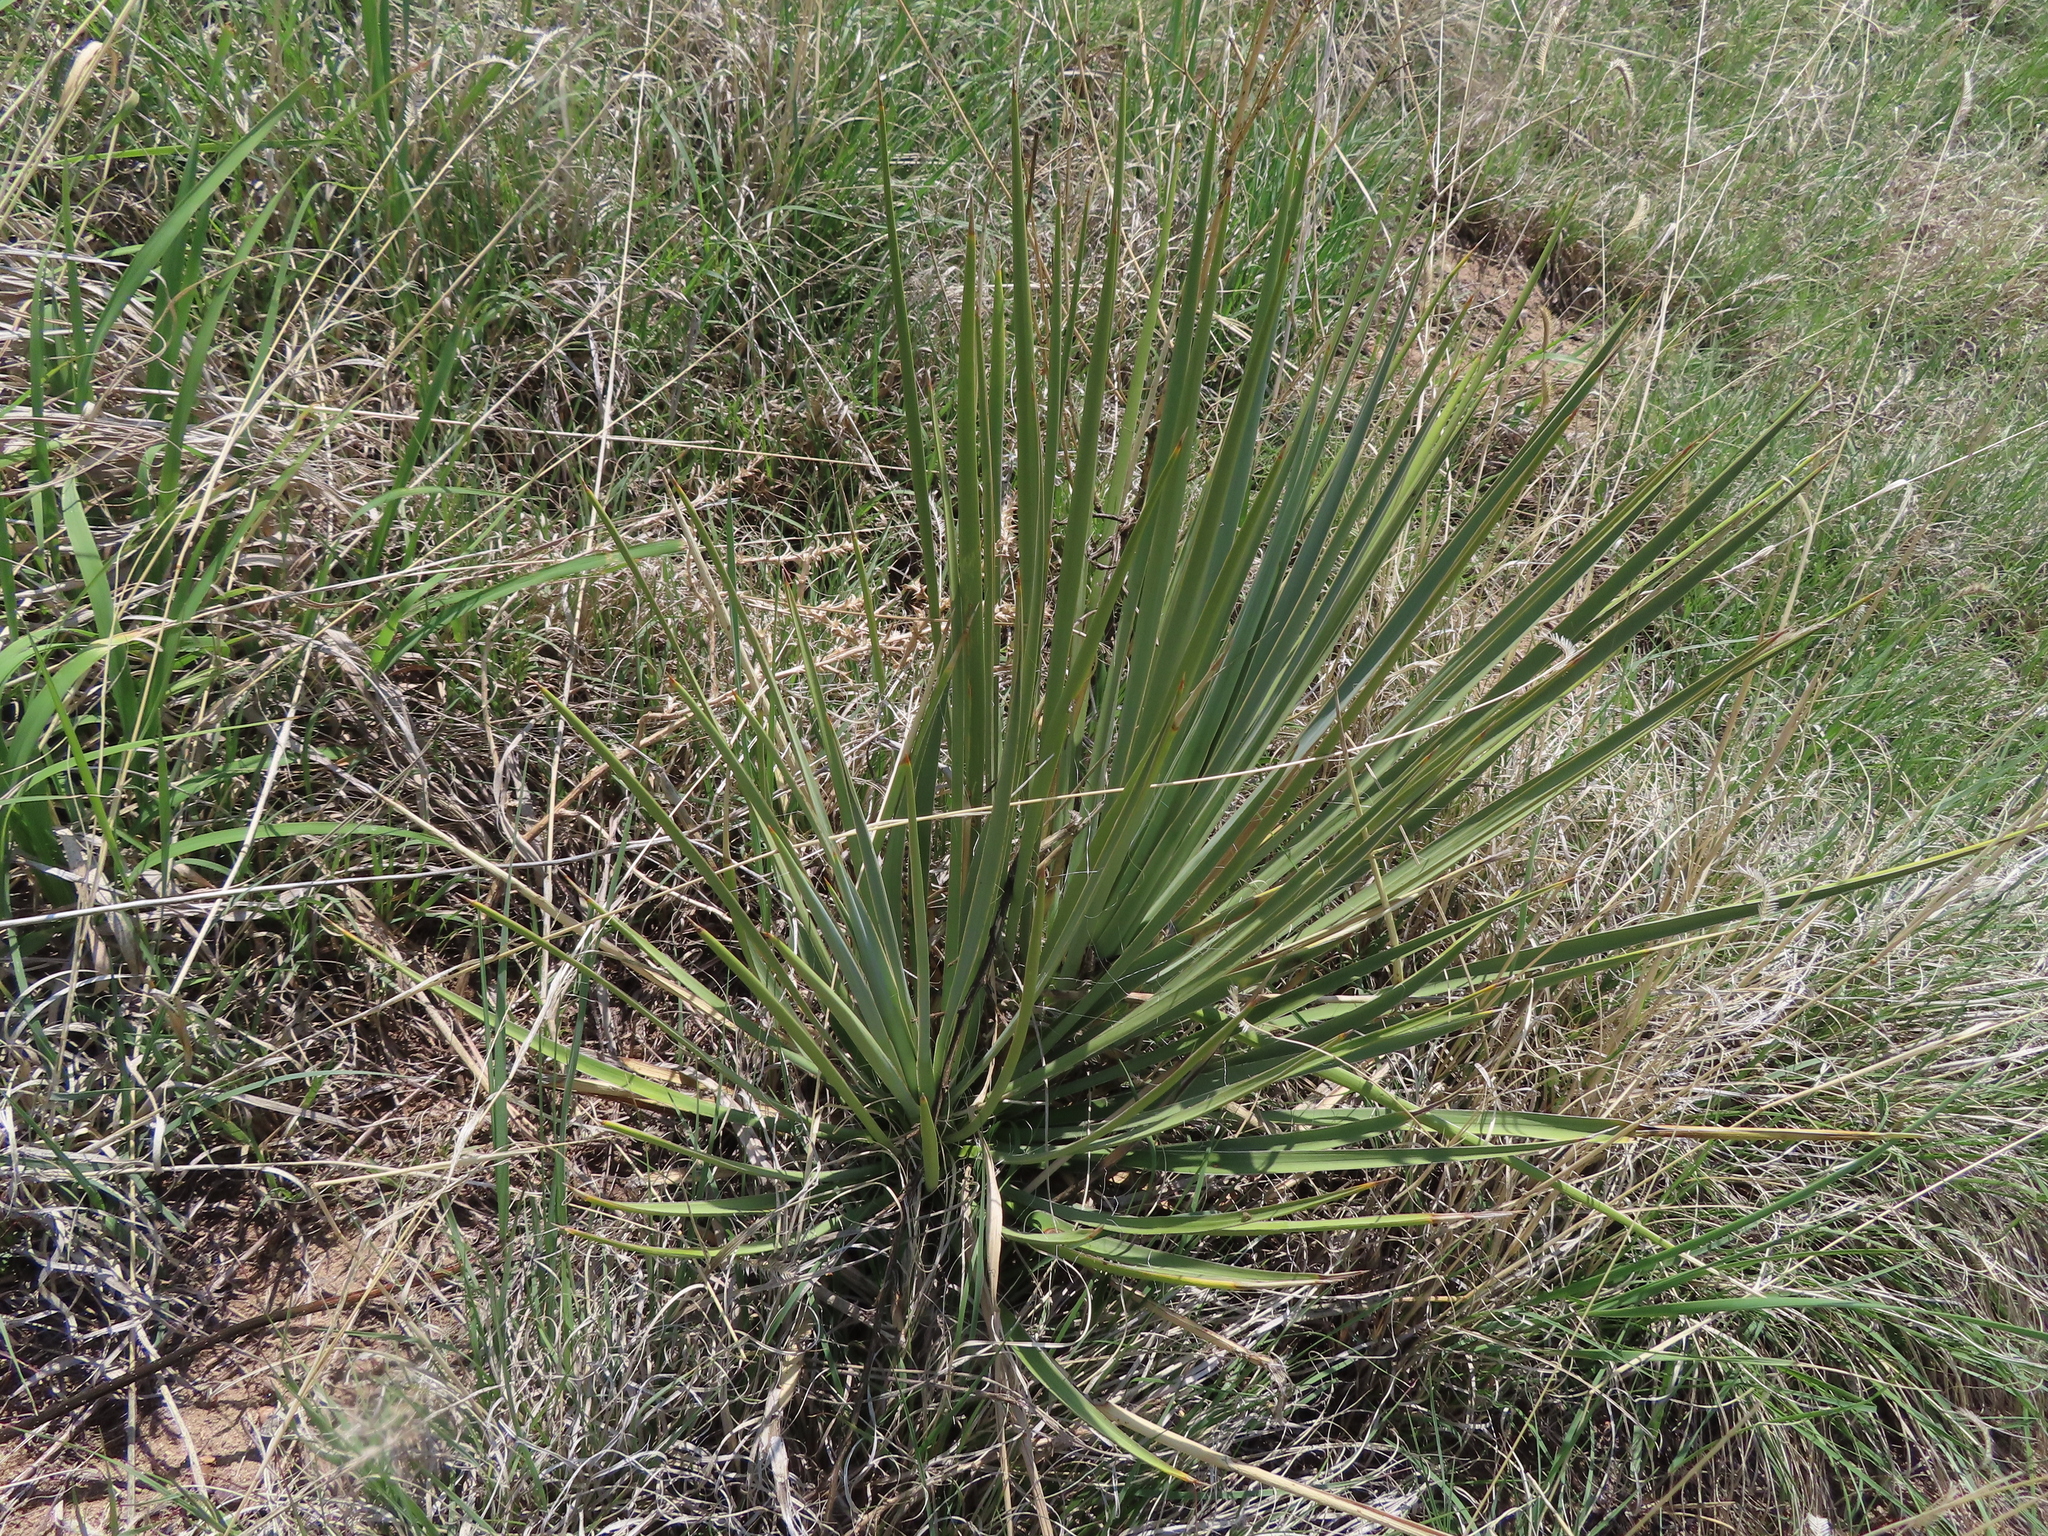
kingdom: Plantae
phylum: Tracheophyta
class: Liliopsida
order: Asparagales
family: Asparagaceae
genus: Yucca
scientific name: Yucca glauca
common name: Great plains yucca
